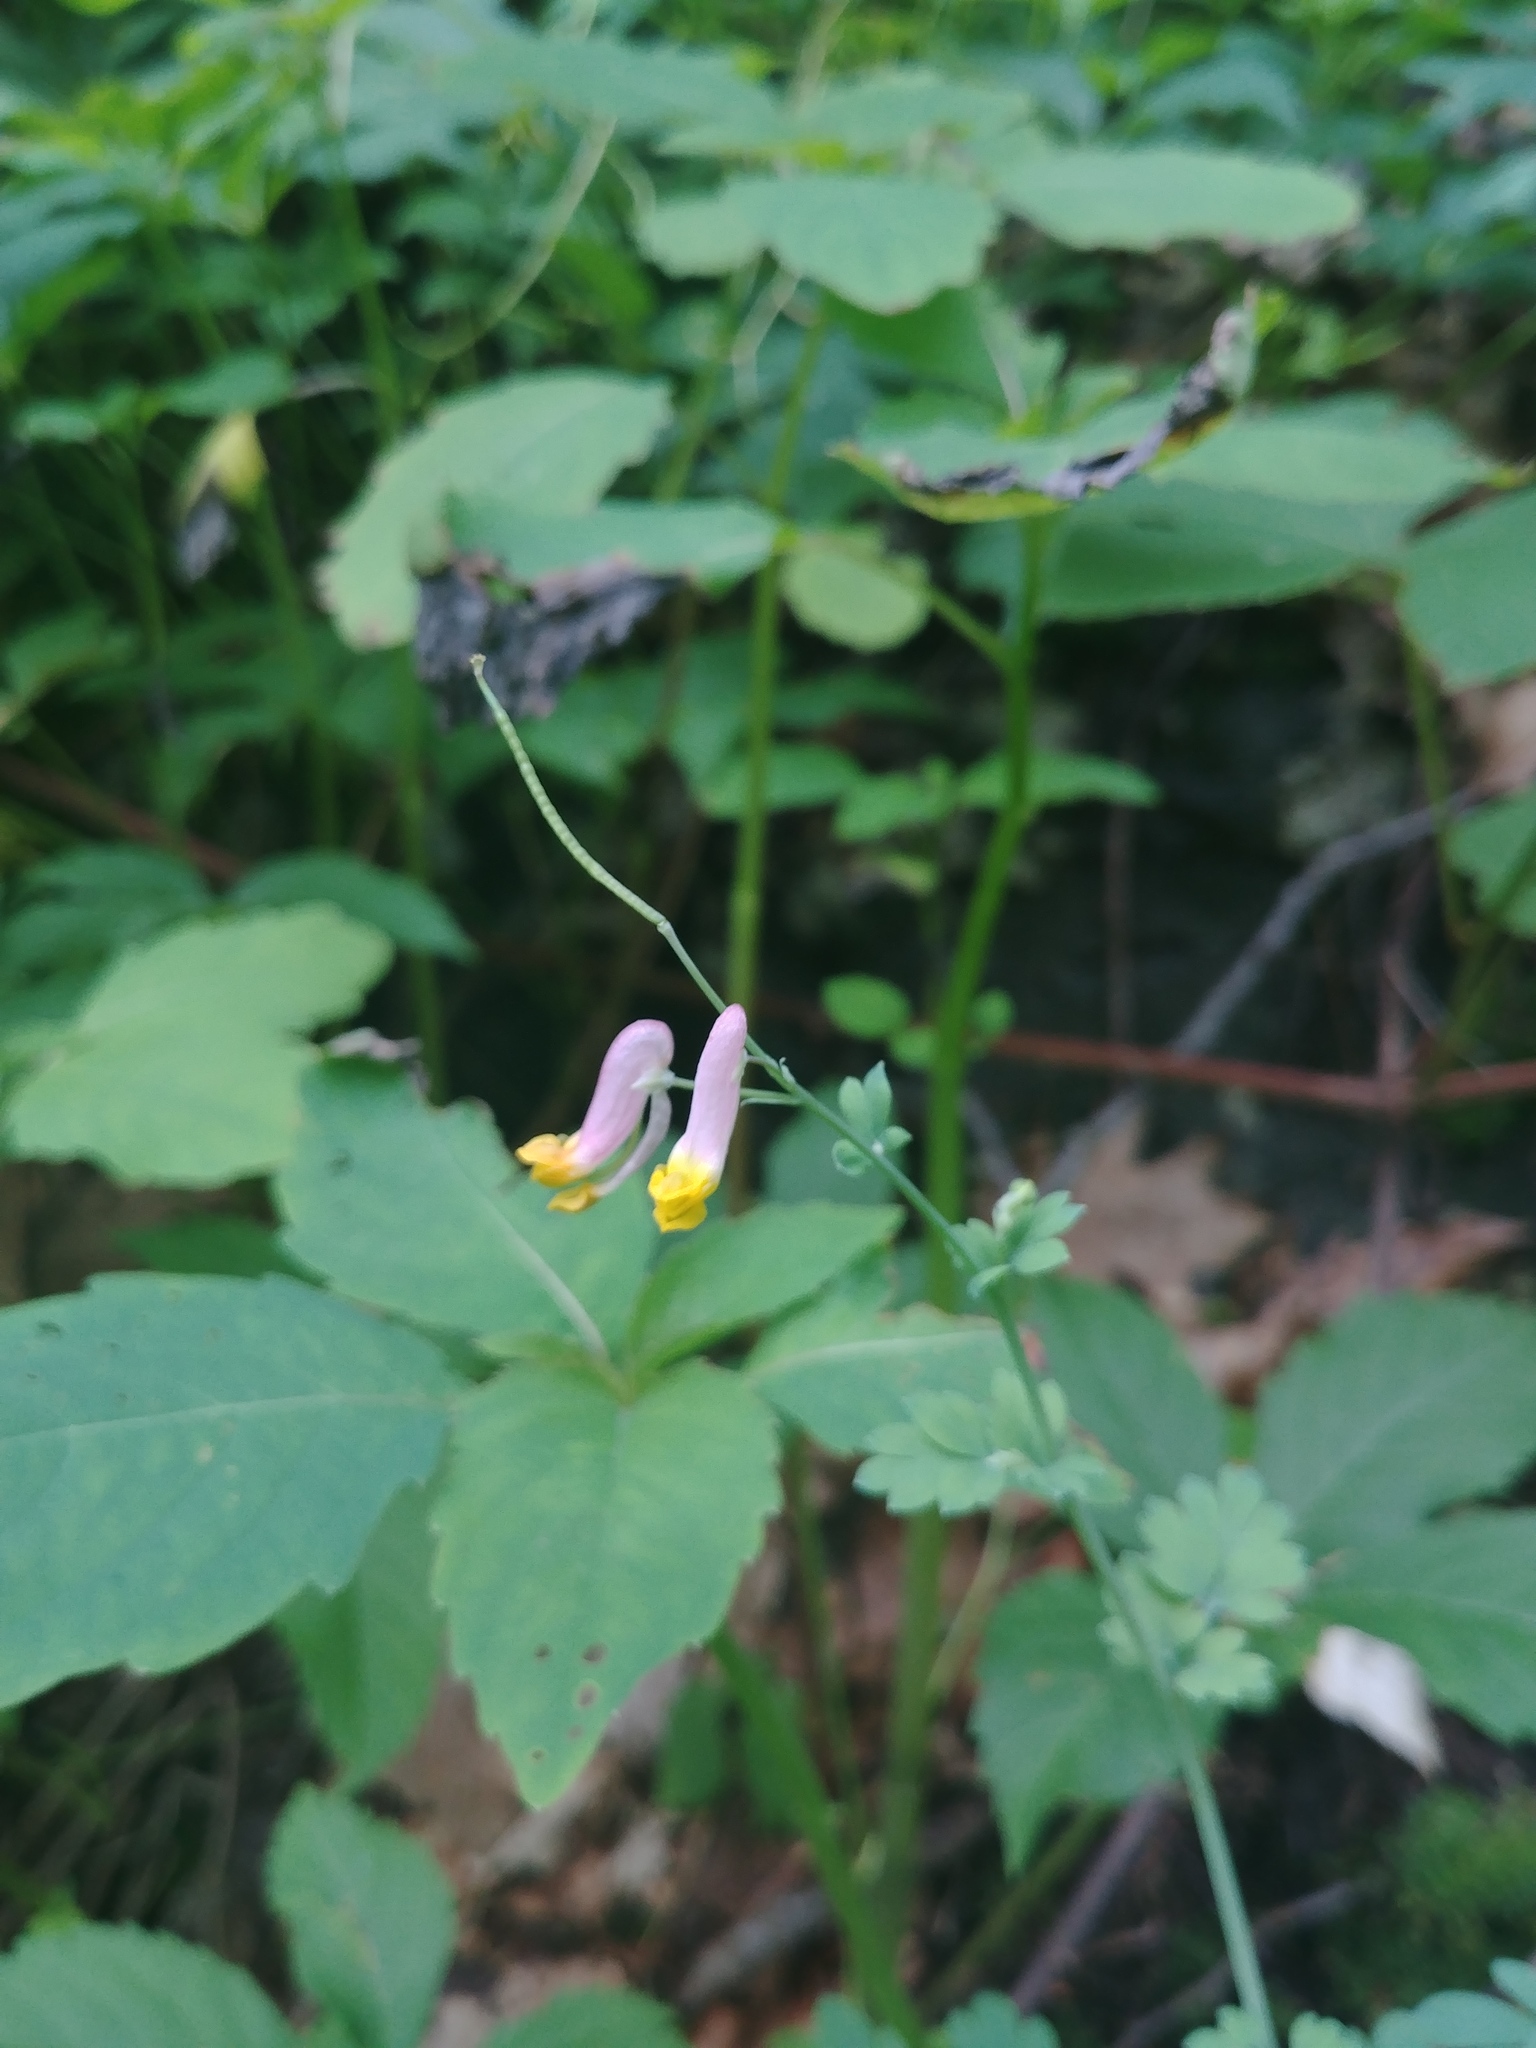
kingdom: Plantae
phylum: Tracheophyta
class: Magnoliopsida
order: Ranunculales
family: Papaveraceae
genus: Capnoides
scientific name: Capnoides sempervirens
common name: Rock harlequin
